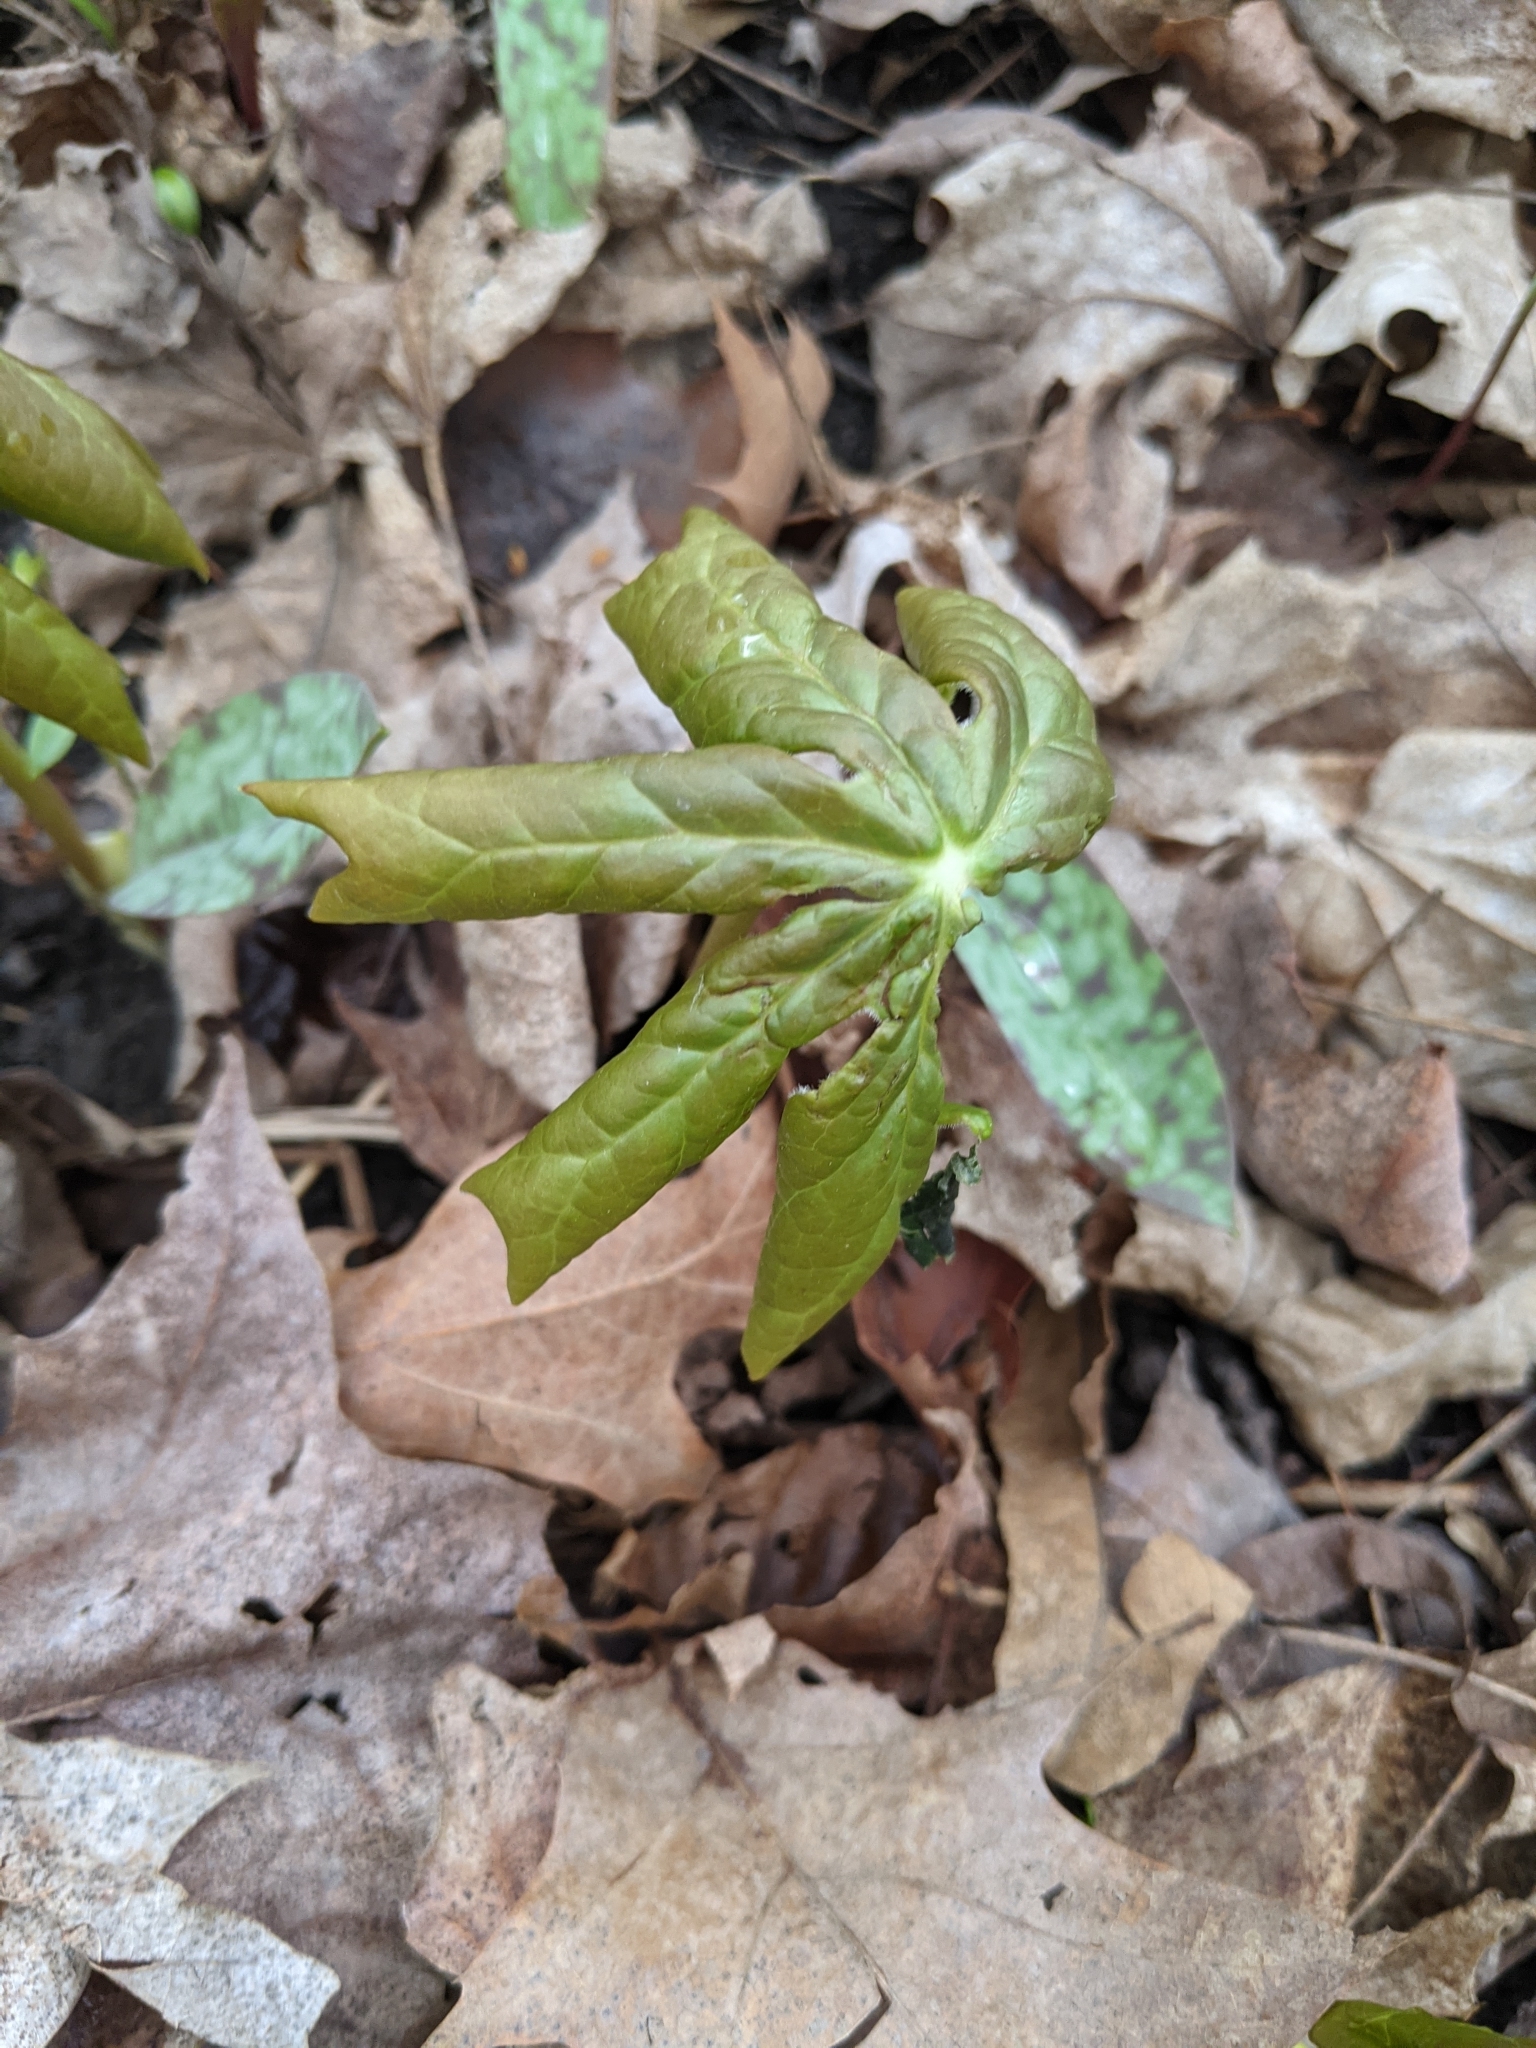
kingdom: Plantae
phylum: Tracheophyta
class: Magnoliopsida
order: Ranunculales
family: Berberidaceae
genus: Podophyllum
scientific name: Podophyllum peltatum
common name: Wild mandrake
